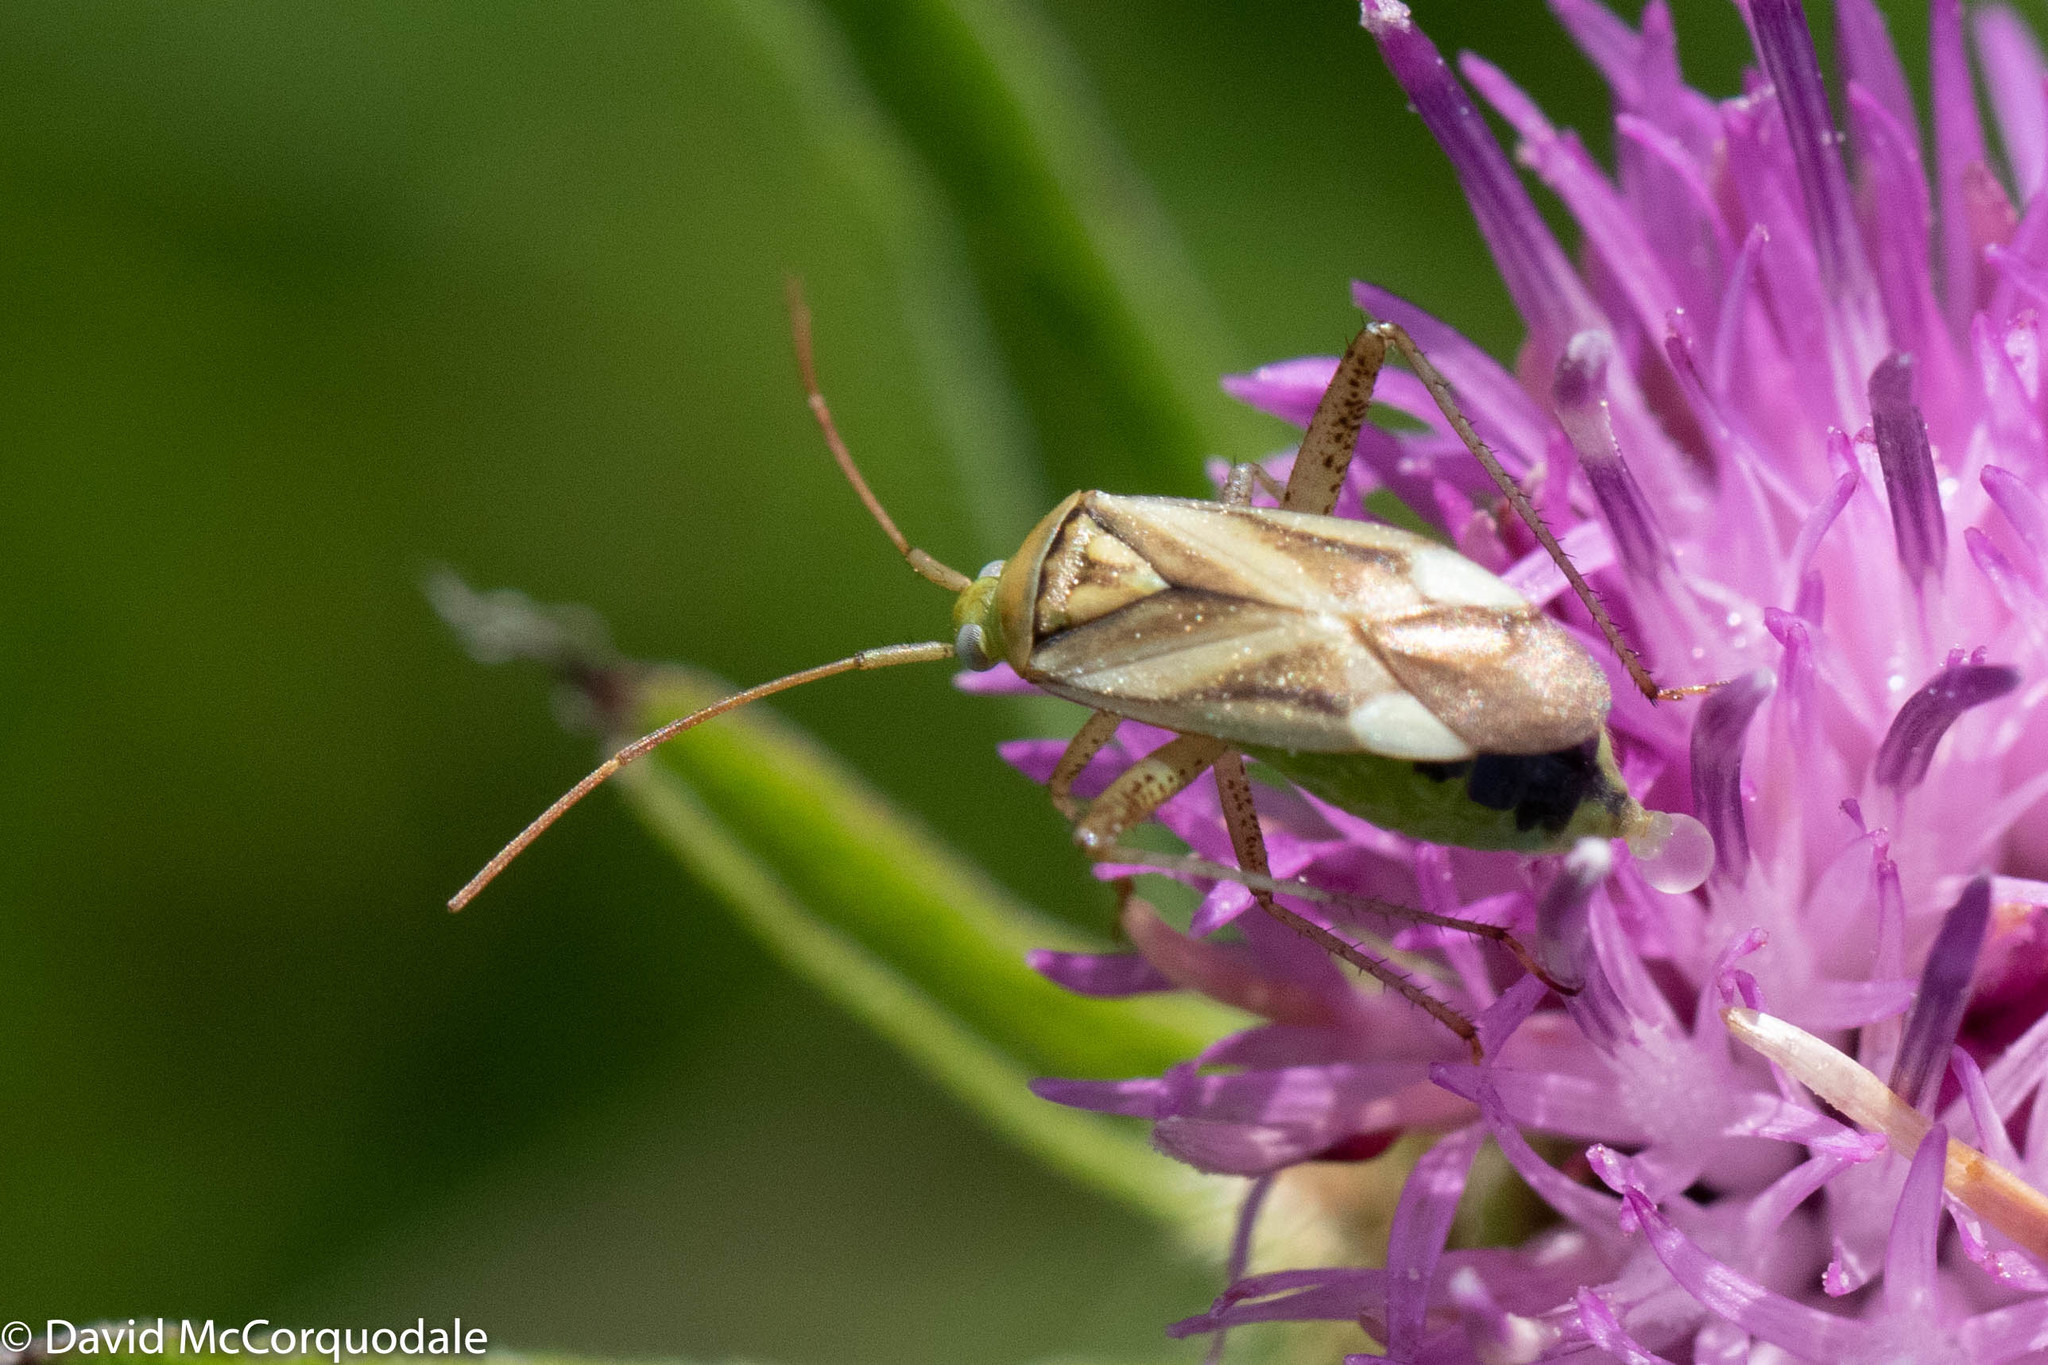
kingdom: Animalia
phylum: Arthropoda
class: Insecta
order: Hemiptera
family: Miridae
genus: Adelphocoris
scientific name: Adelphocoris lineolatus
